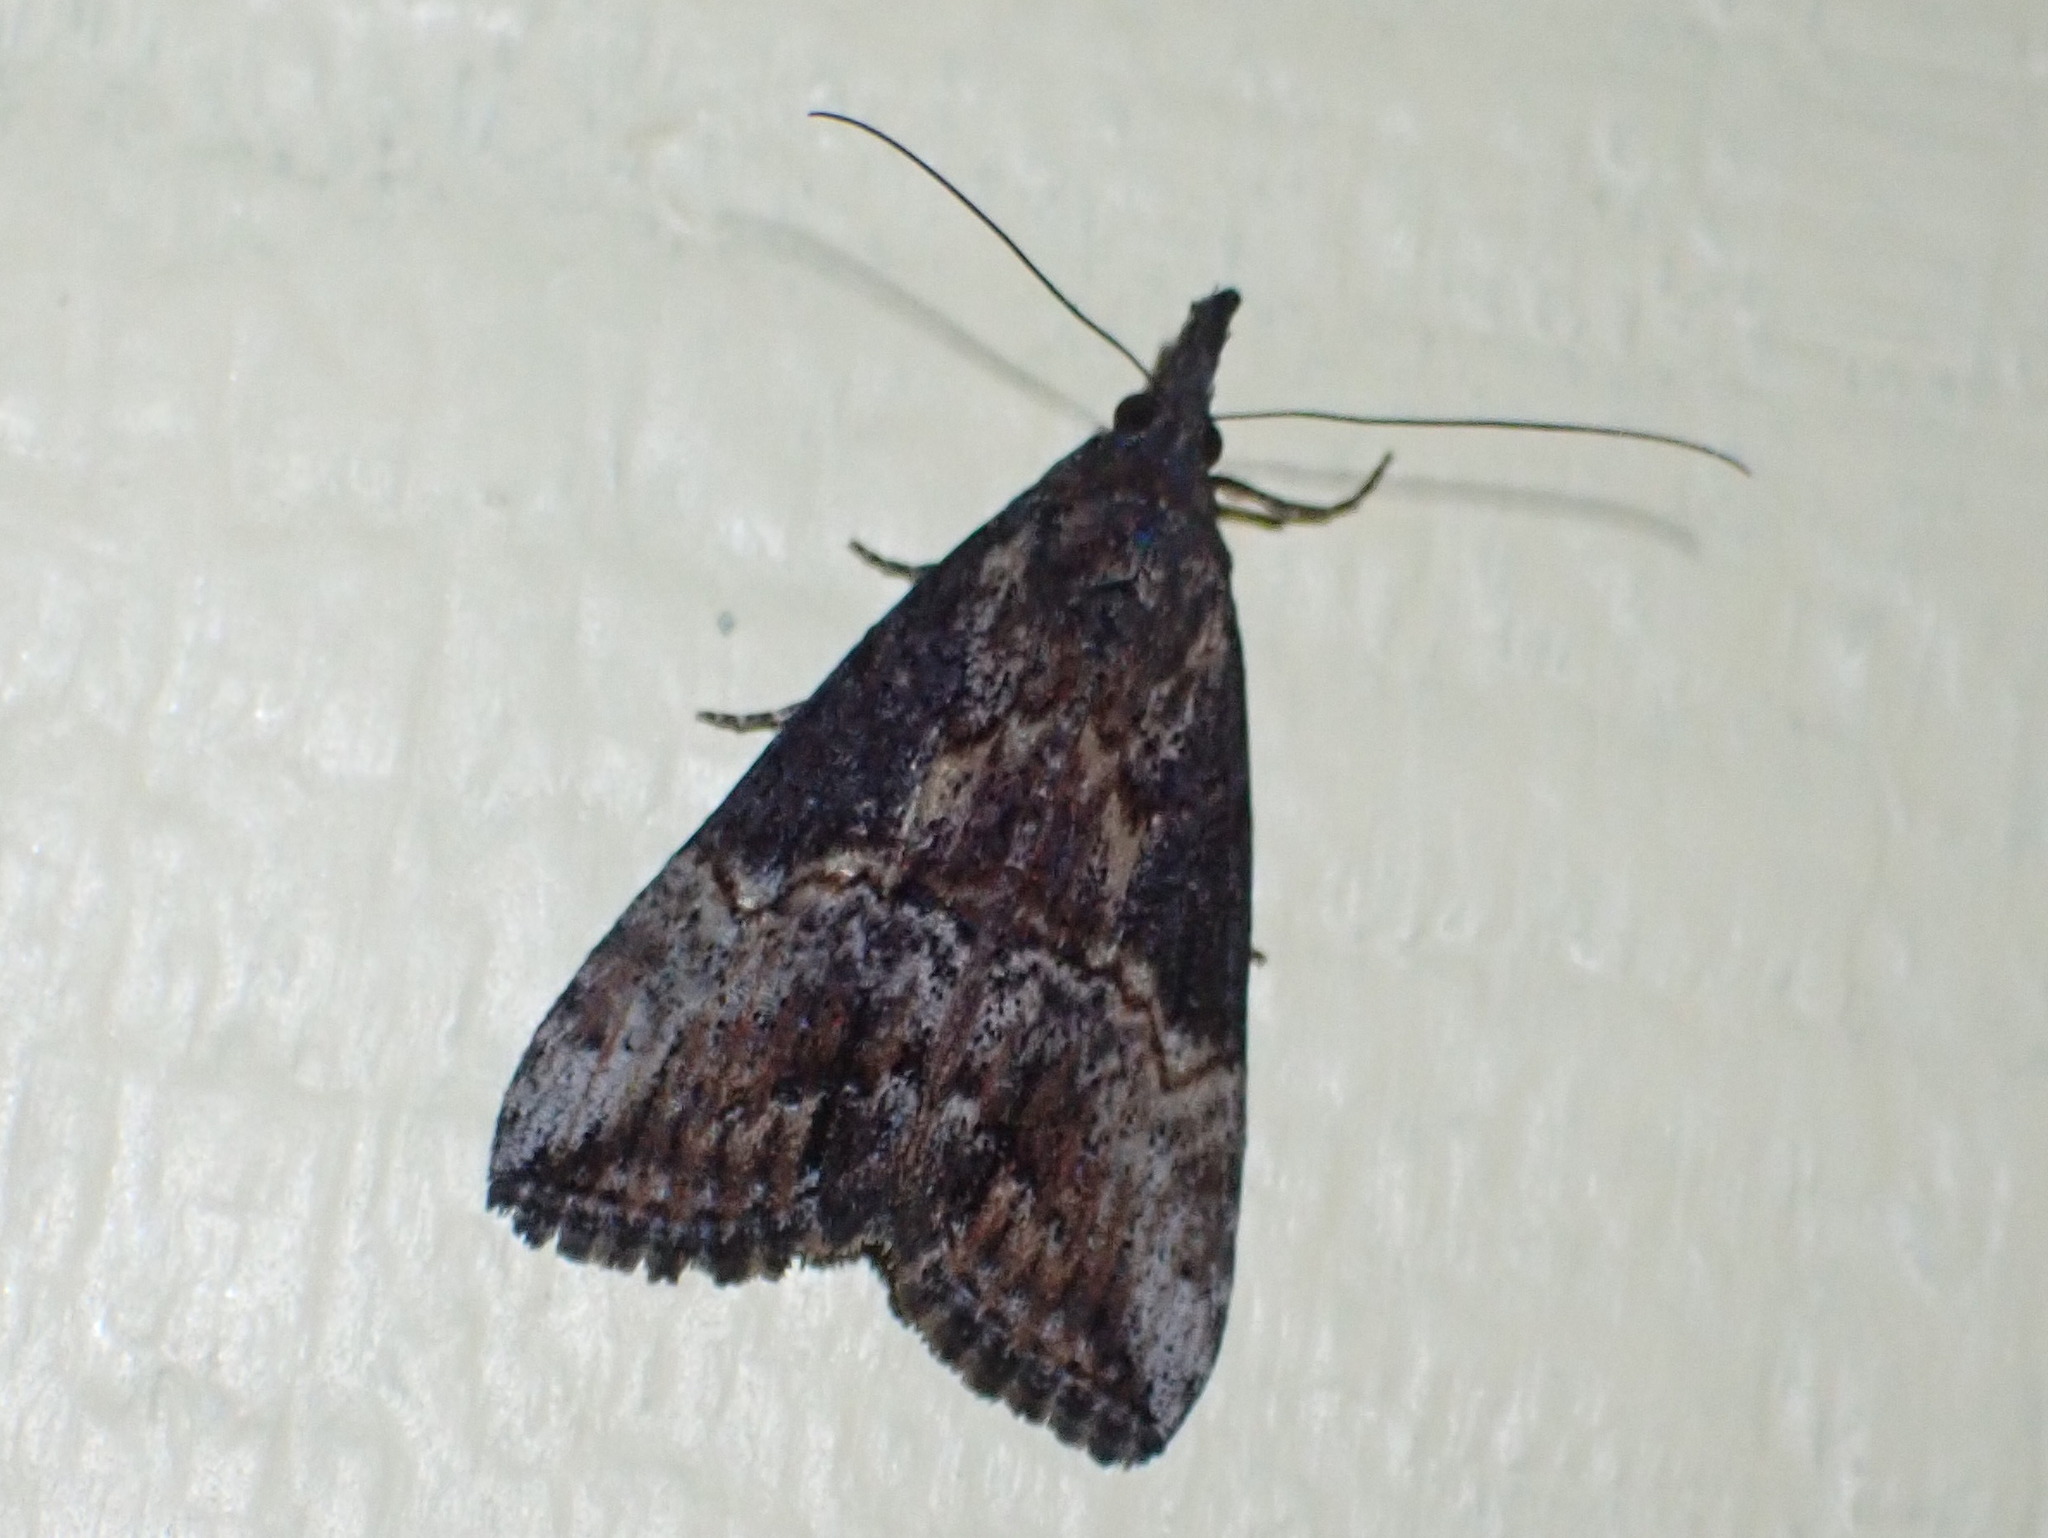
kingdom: Animalia
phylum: Arthropoda
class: Insecta
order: Lepidoptera
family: Erebidae
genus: Hypena
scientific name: Hypena scabra
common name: Green cloverworm
